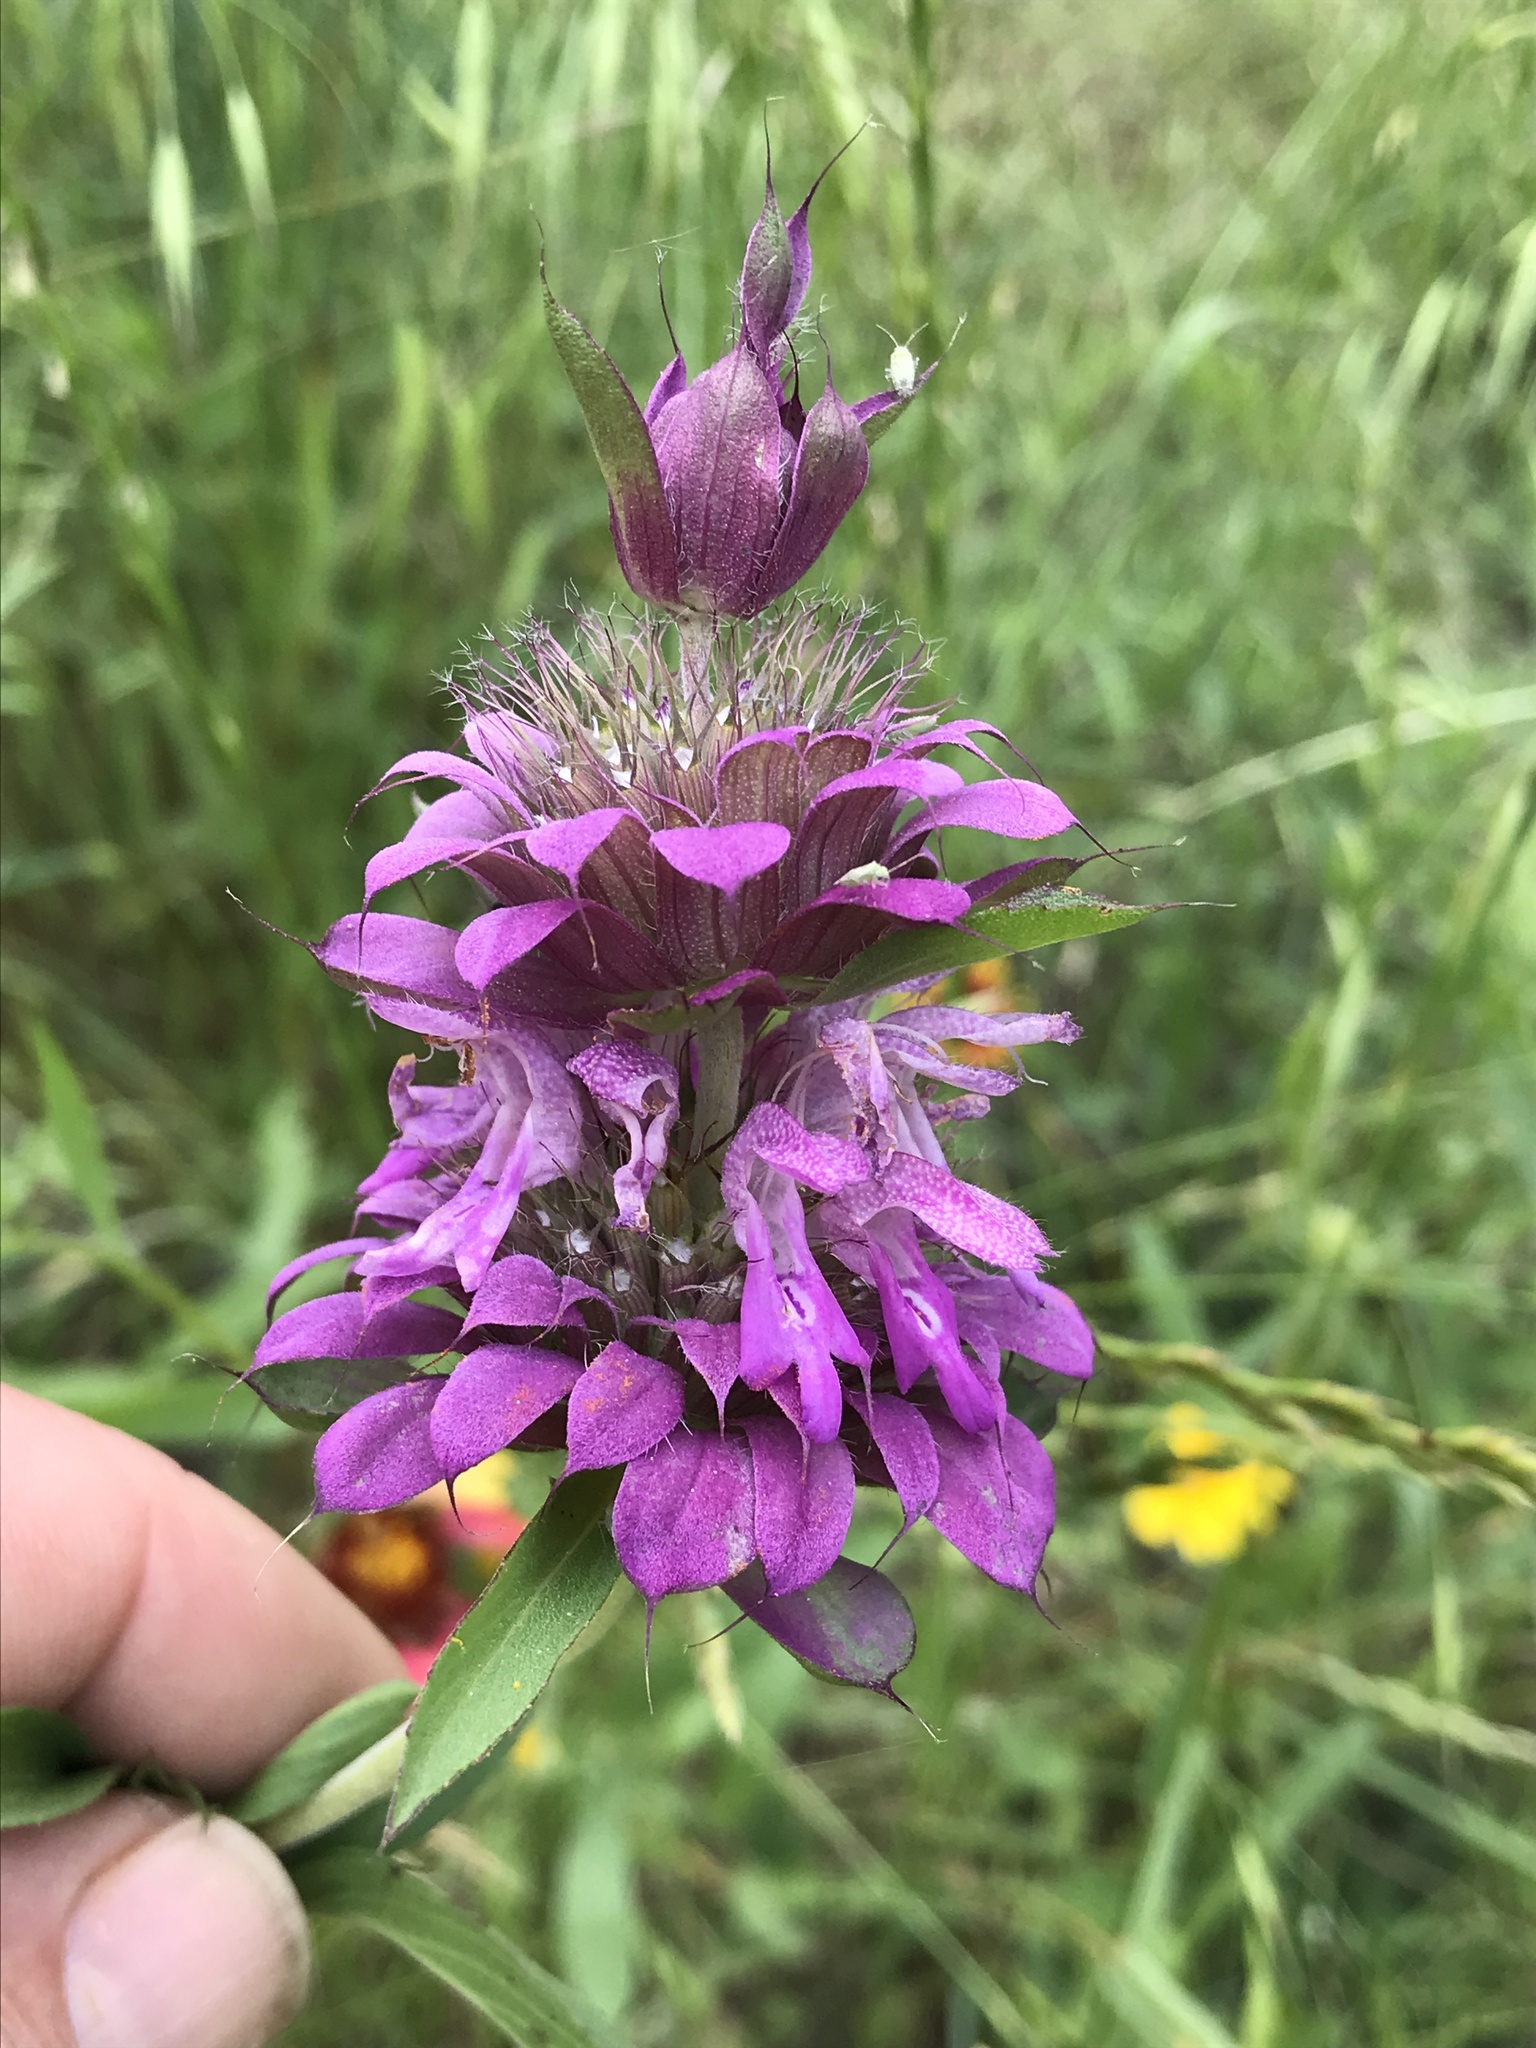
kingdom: Plantae
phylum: Tracheophyta
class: Magnoliopsida
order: Lamiales
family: Lamiaceae
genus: Monarda
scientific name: Monarda citriodora
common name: Lemon beebalm
